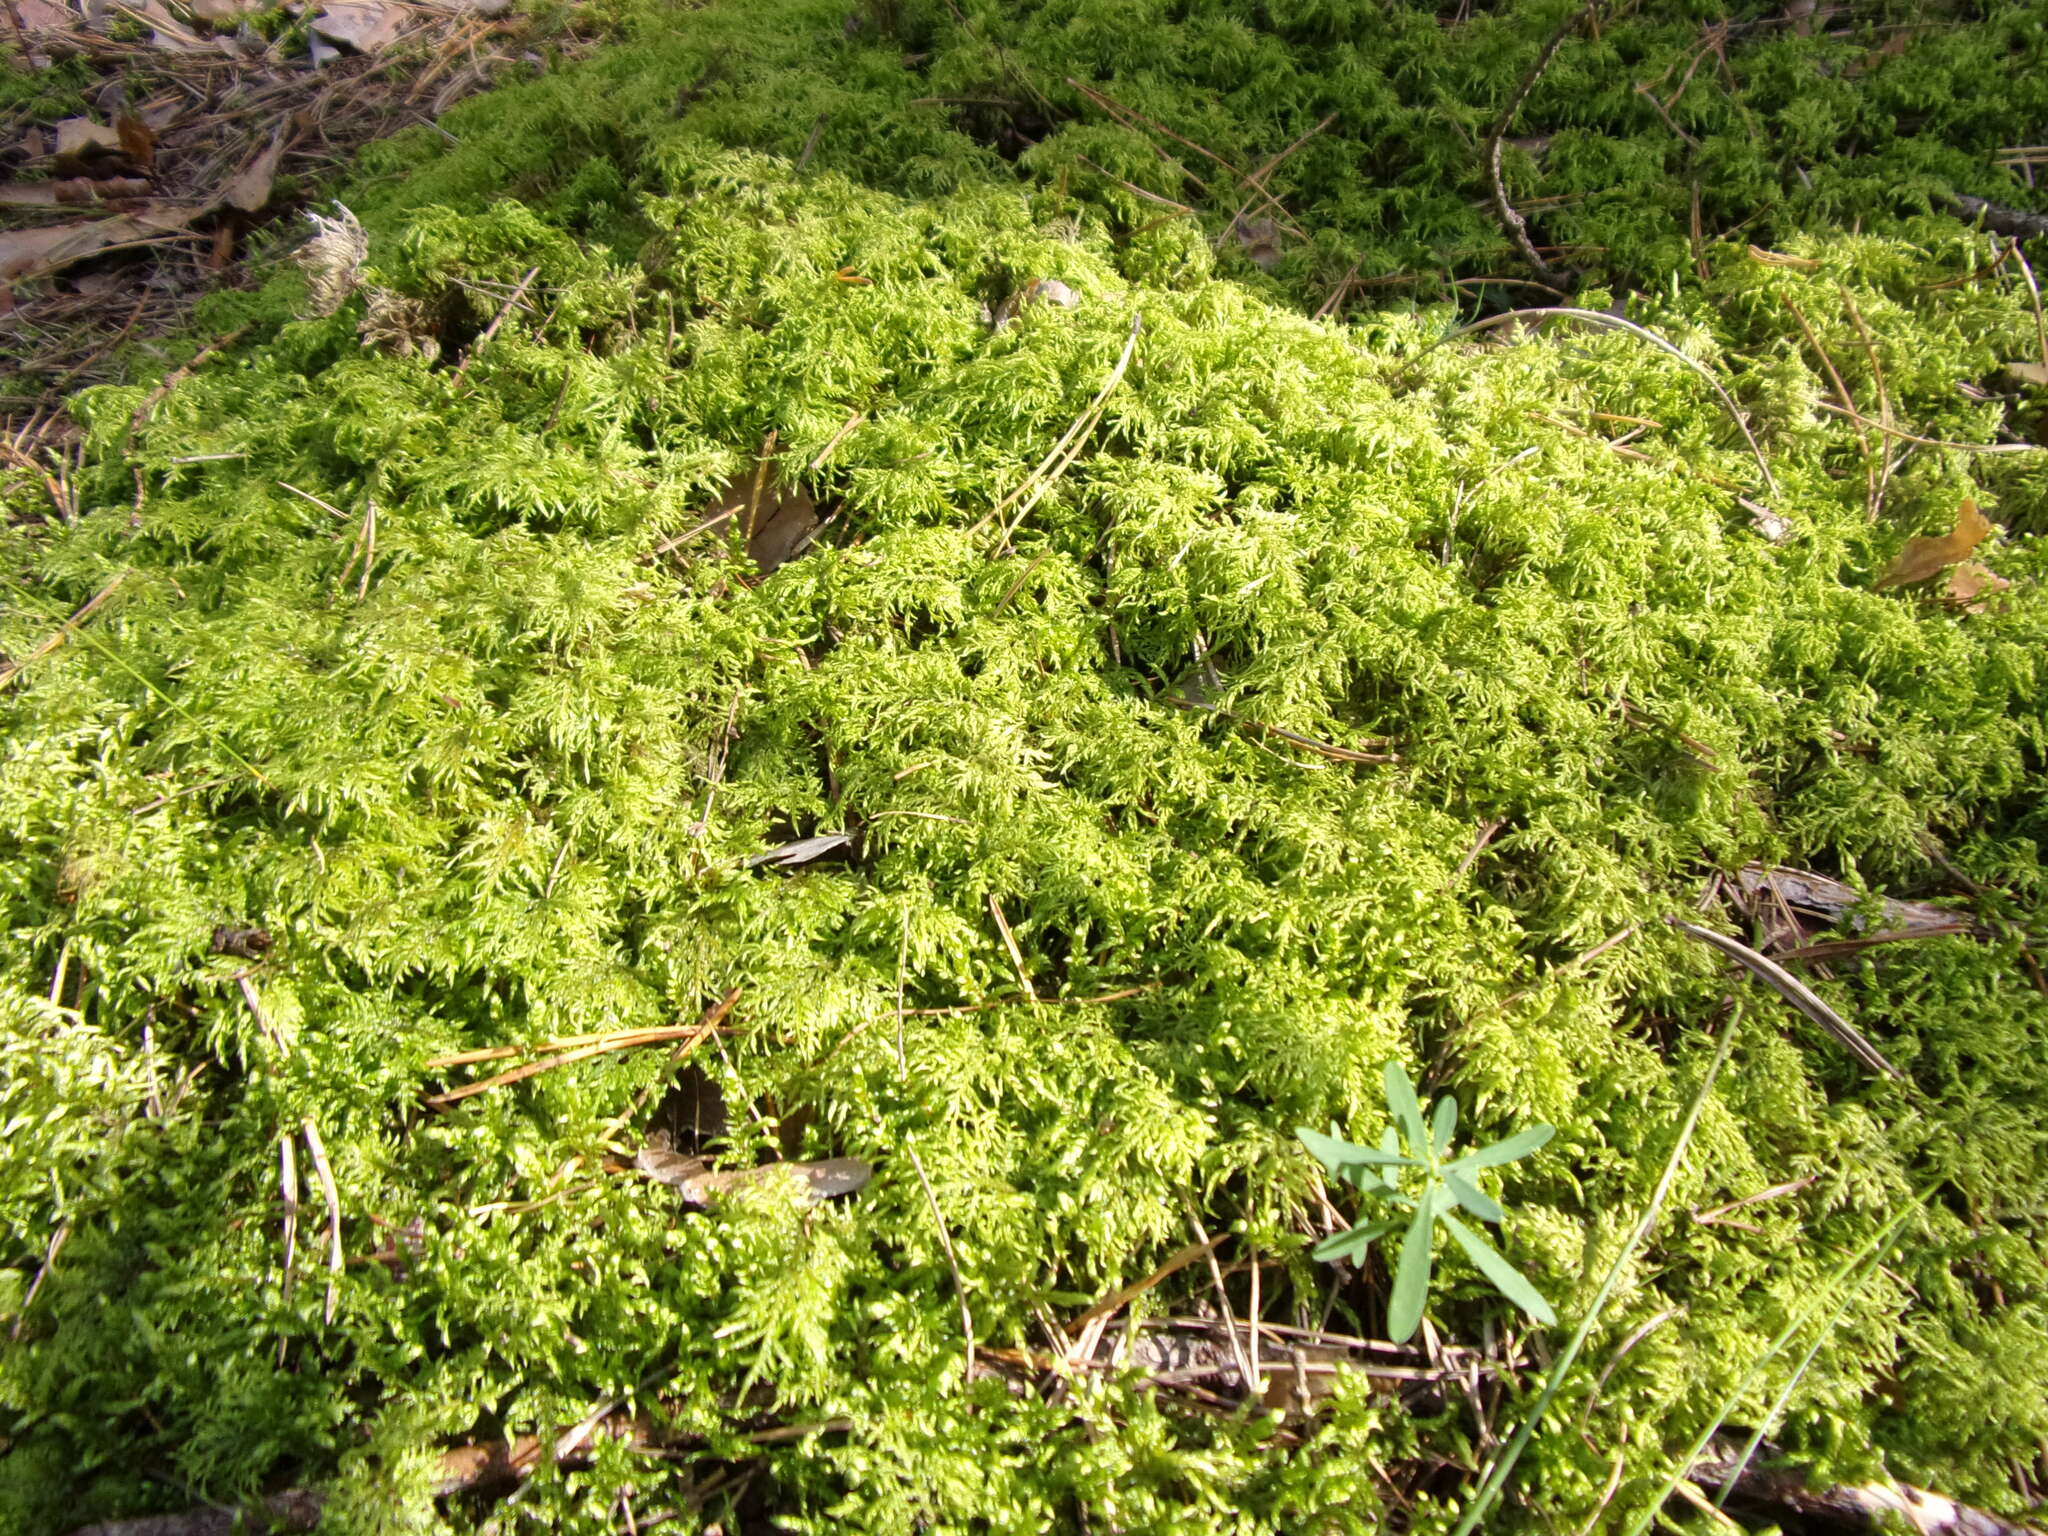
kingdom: Plantae
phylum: Bryophyta
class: Bryopsida
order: Hypnales
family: Hylocomiaceae
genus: Hylocomium
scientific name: Hylocomium splendens
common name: Stairstep moss
